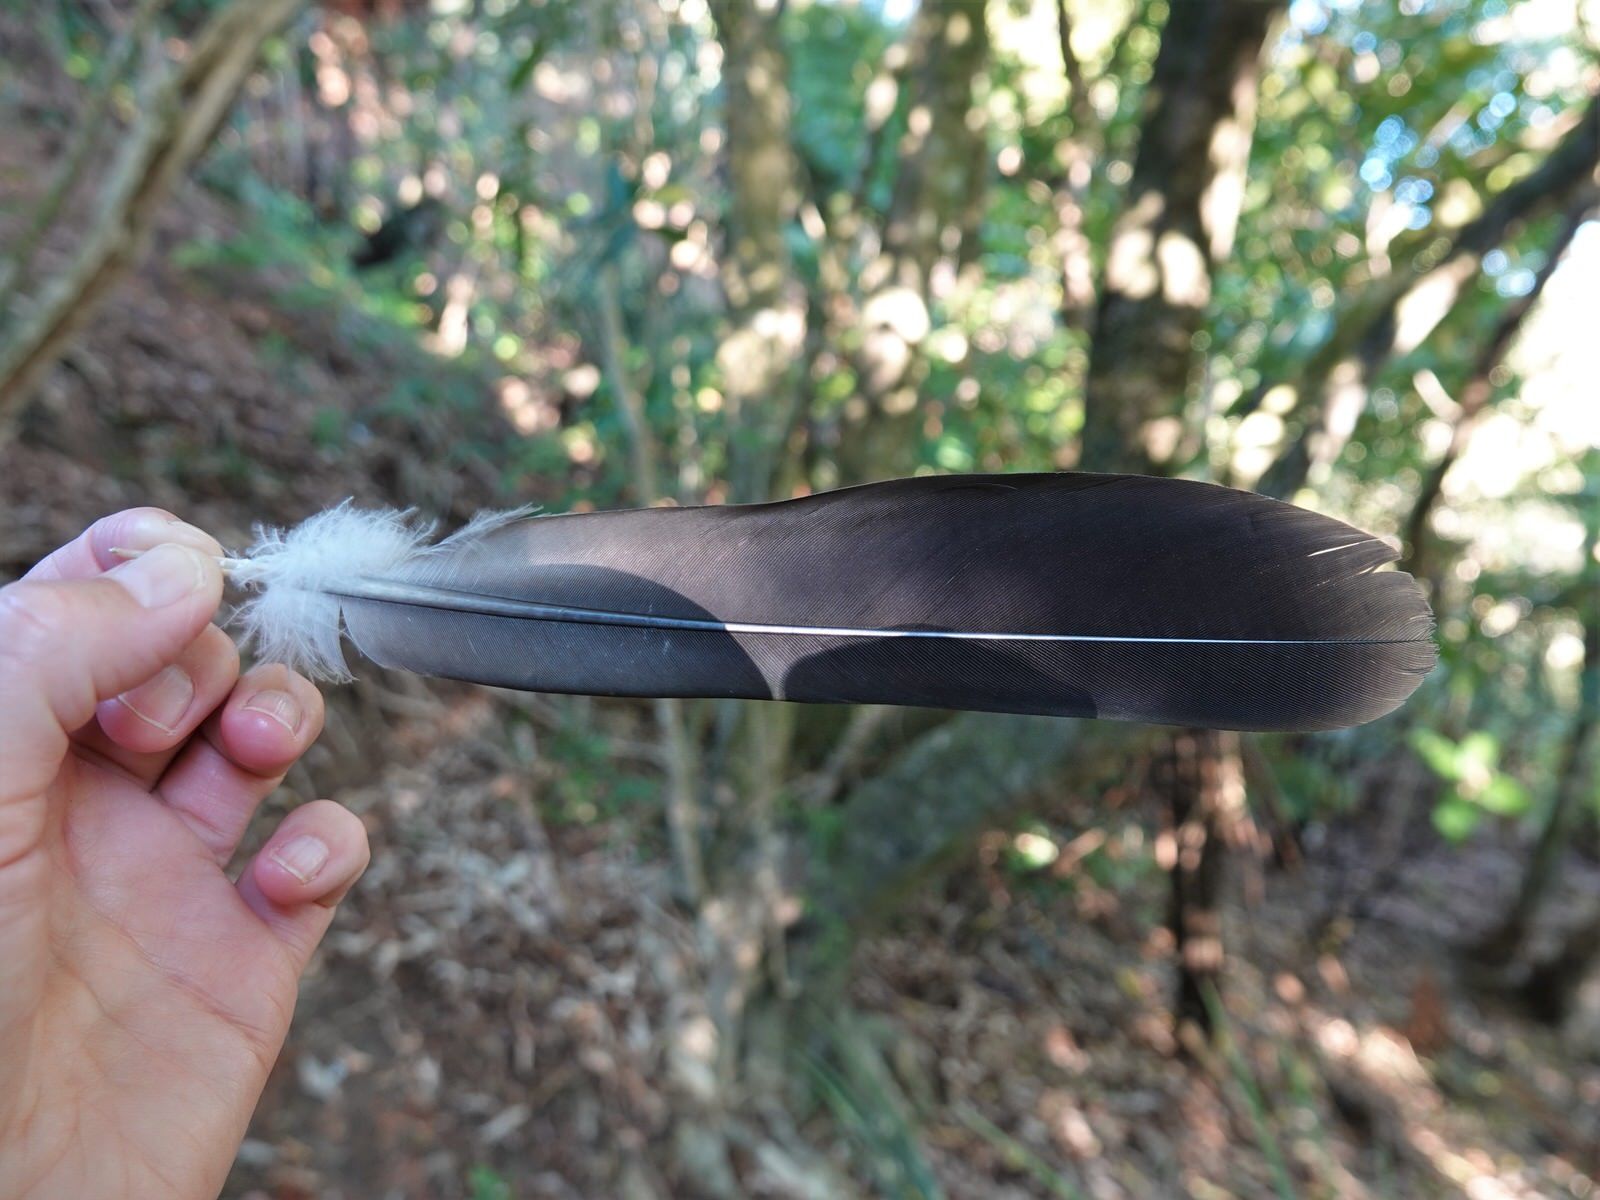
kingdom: Animalia
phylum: Chordata
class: Aves
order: Columbiformes
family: Columbidae
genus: Hemiphaga
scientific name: Hemiphaga novaeseelandiae
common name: New zealand pigeon
